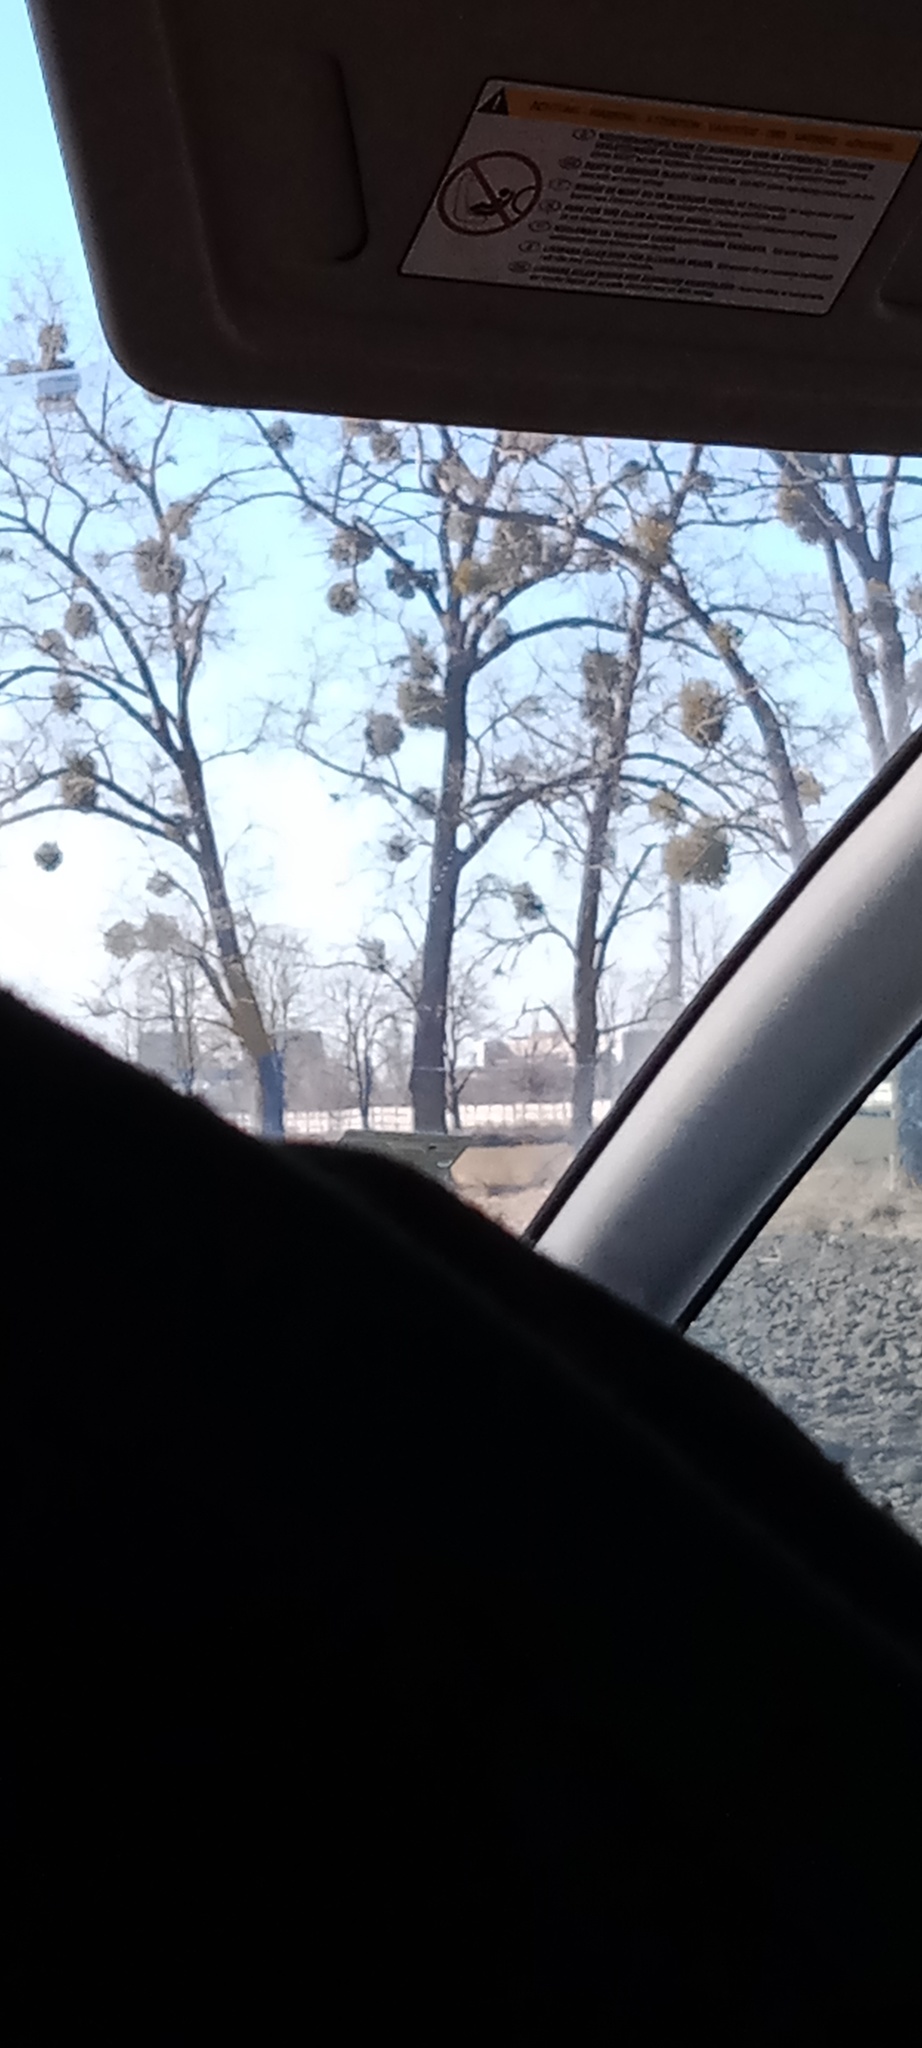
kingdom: Plantae
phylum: Tracheophyta
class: Magnoliopsida
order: Santalales
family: Viscaceae
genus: Viscum
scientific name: Viscum album
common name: Mistletoe
